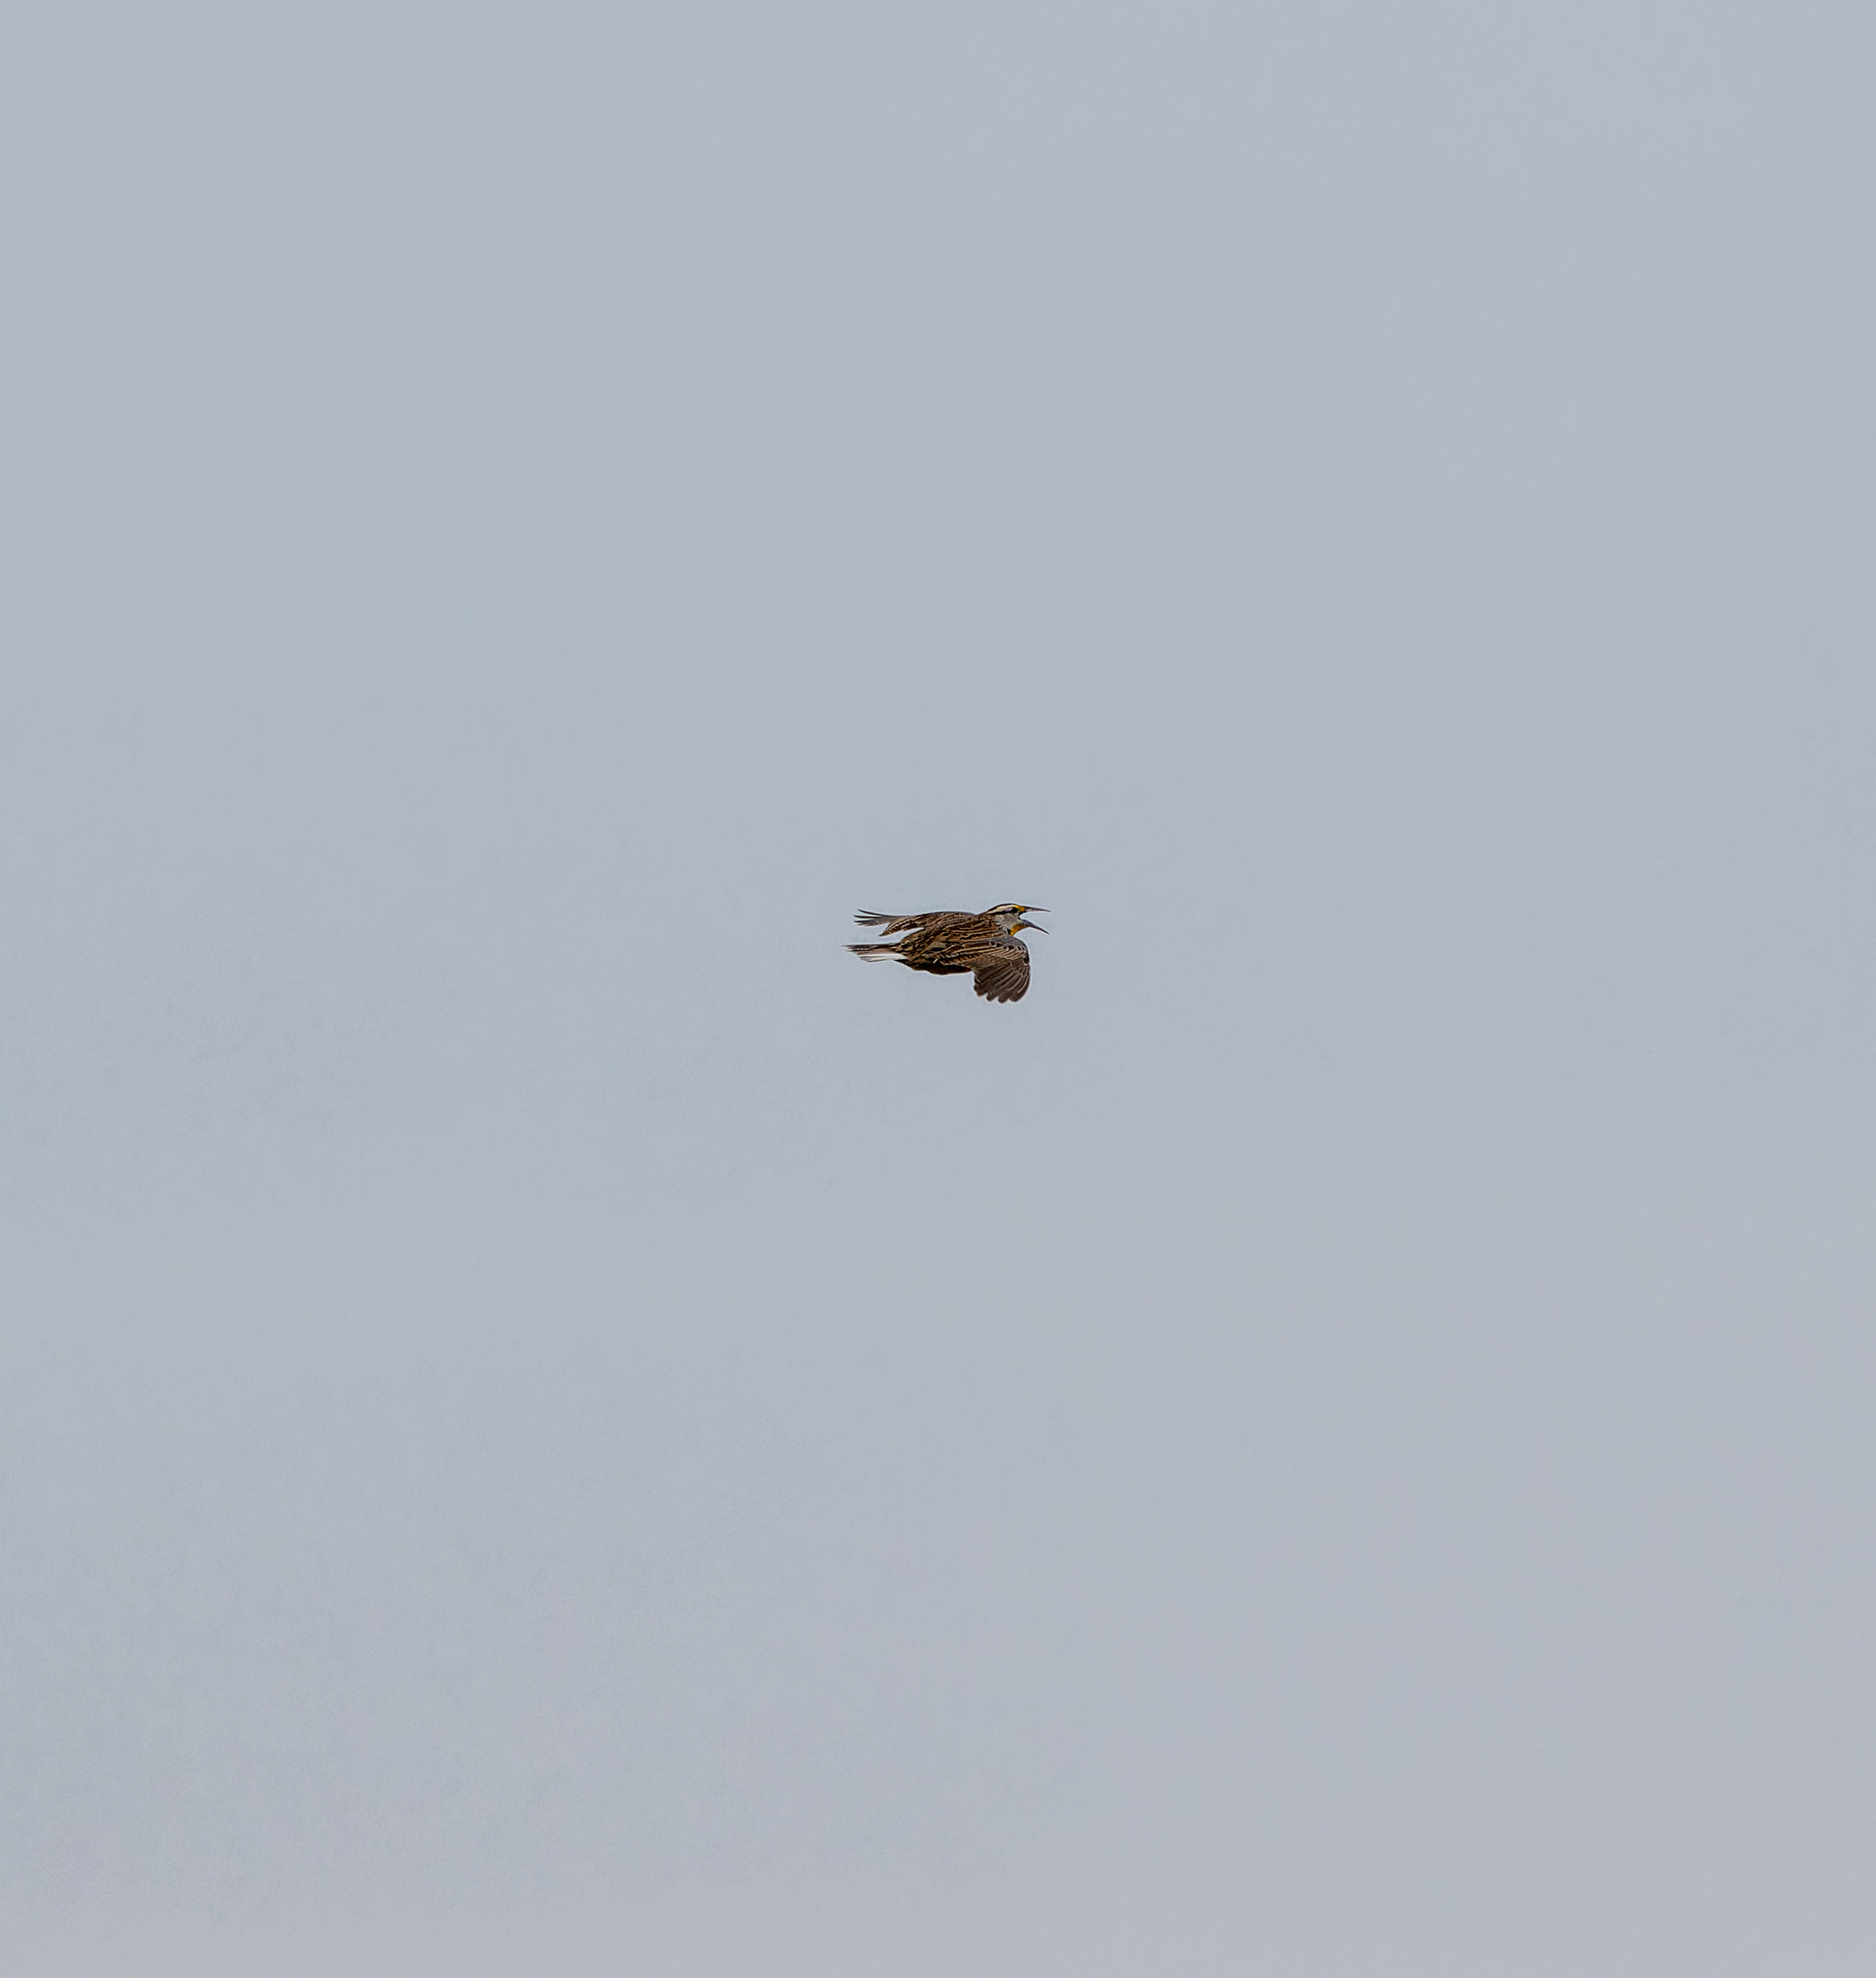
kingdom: Animalia
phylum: Chordata
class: Aves
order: Passeriformes
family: Icteridae
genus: Sturnella
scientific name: Sturnella magna
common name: Eastern meadowlark
